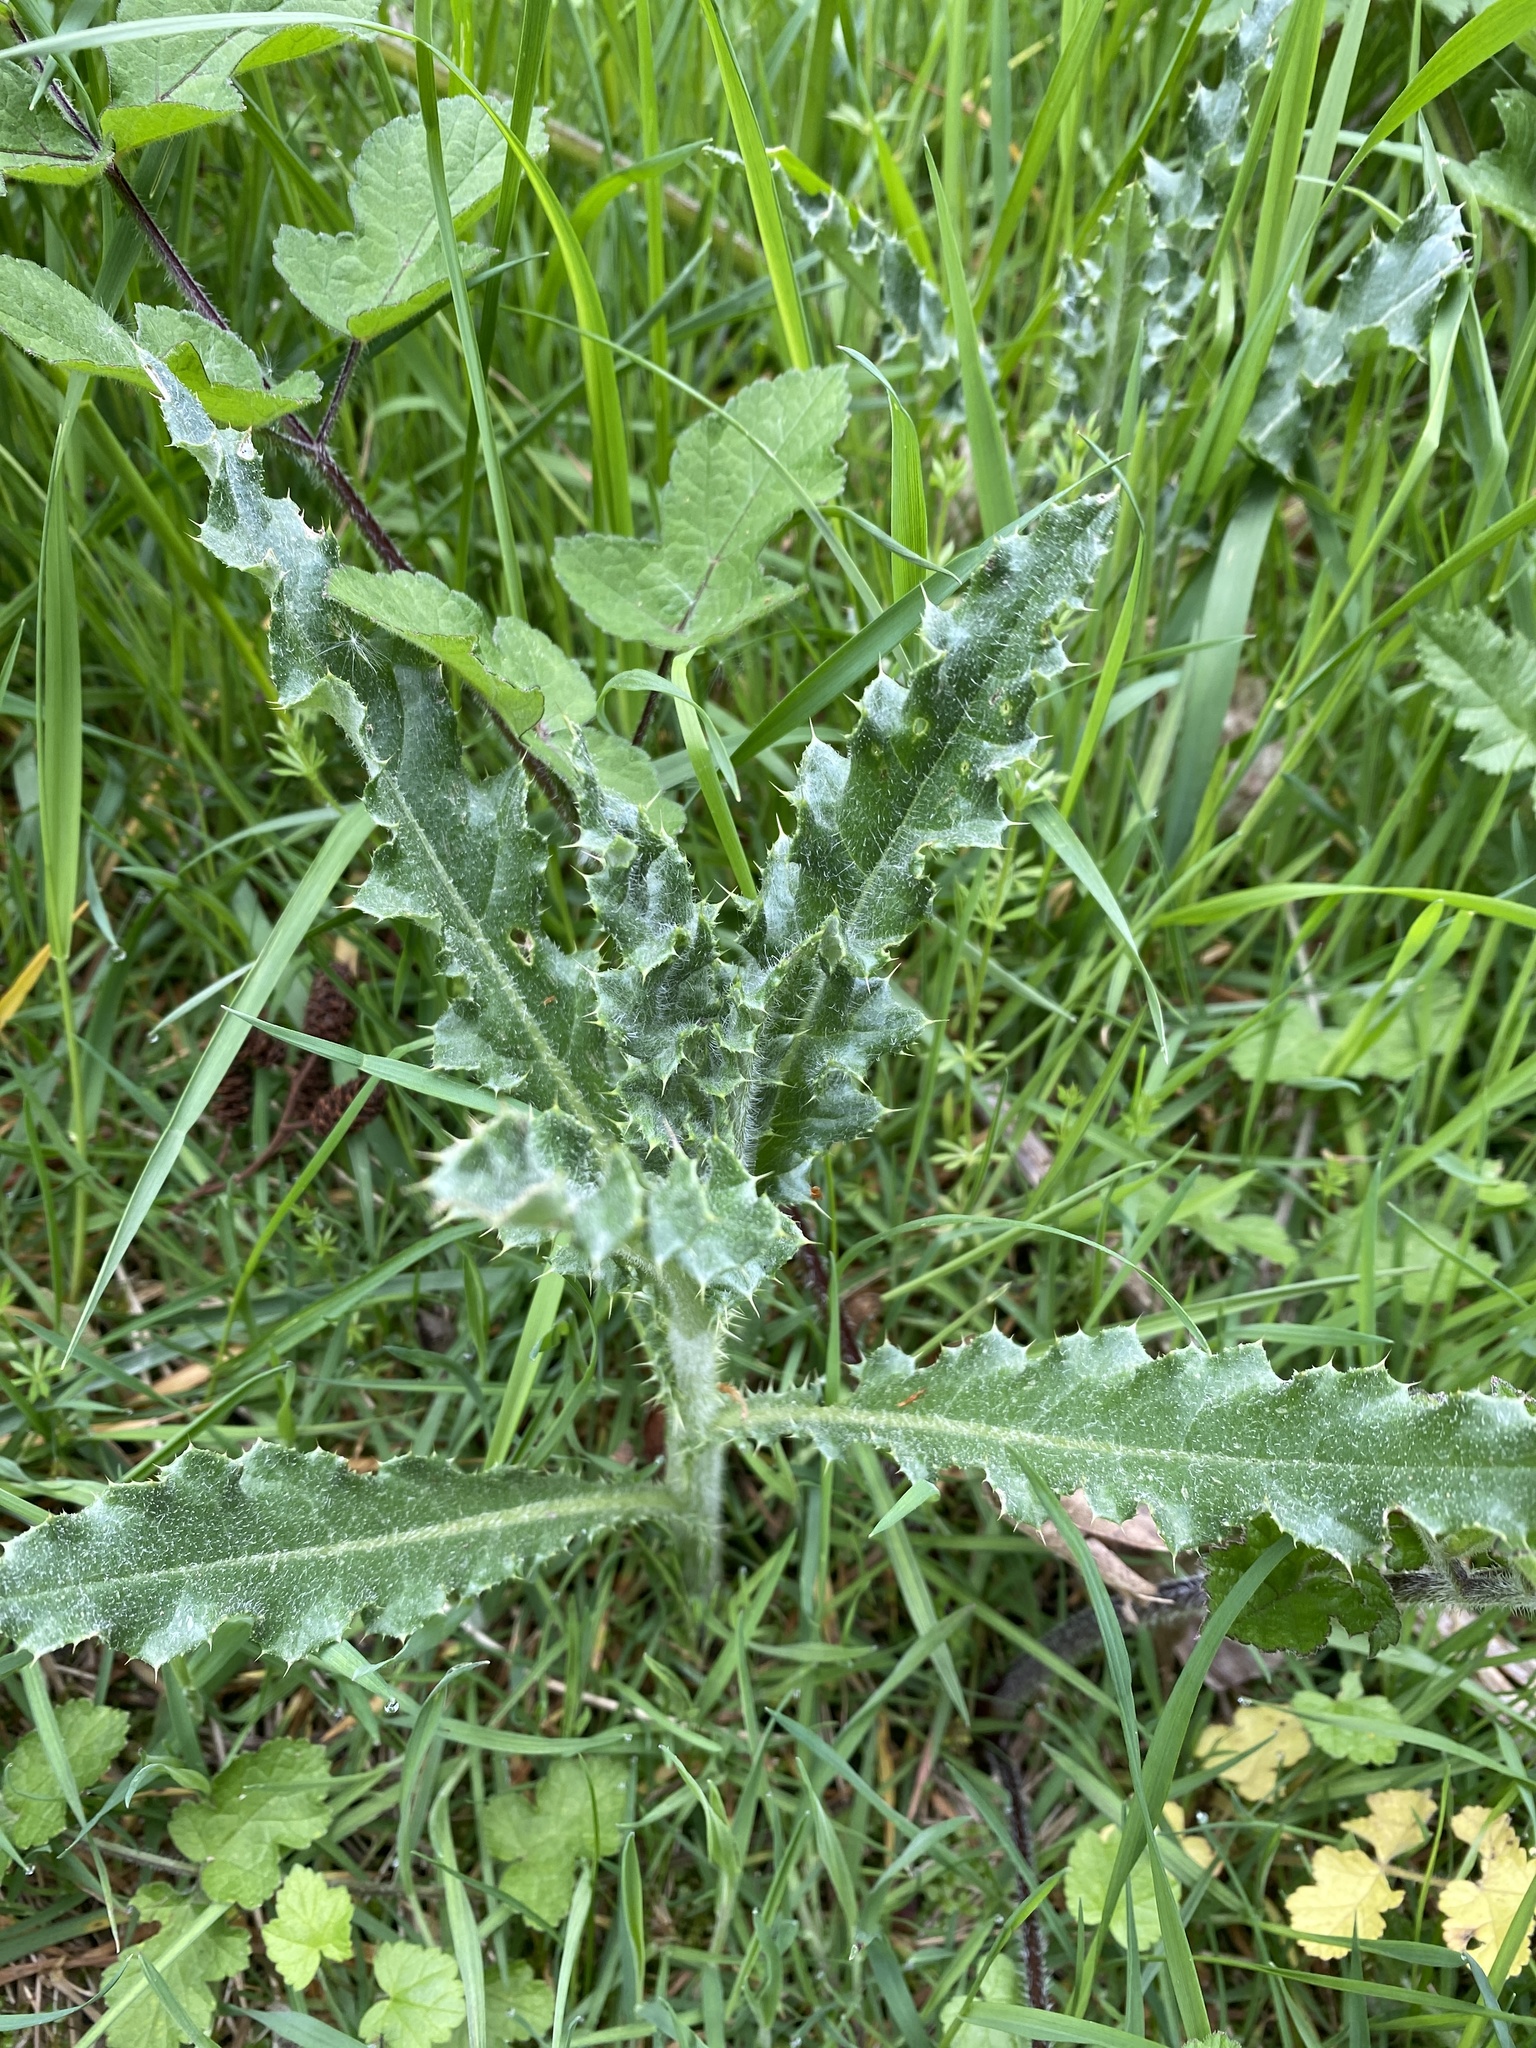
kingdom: Plantae
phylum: Tracheophyta
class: Magnoliopsida
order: Asterales
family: Asteraceae
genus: Cirsium
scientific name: Cirsium arvense
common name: Creeping thistle
